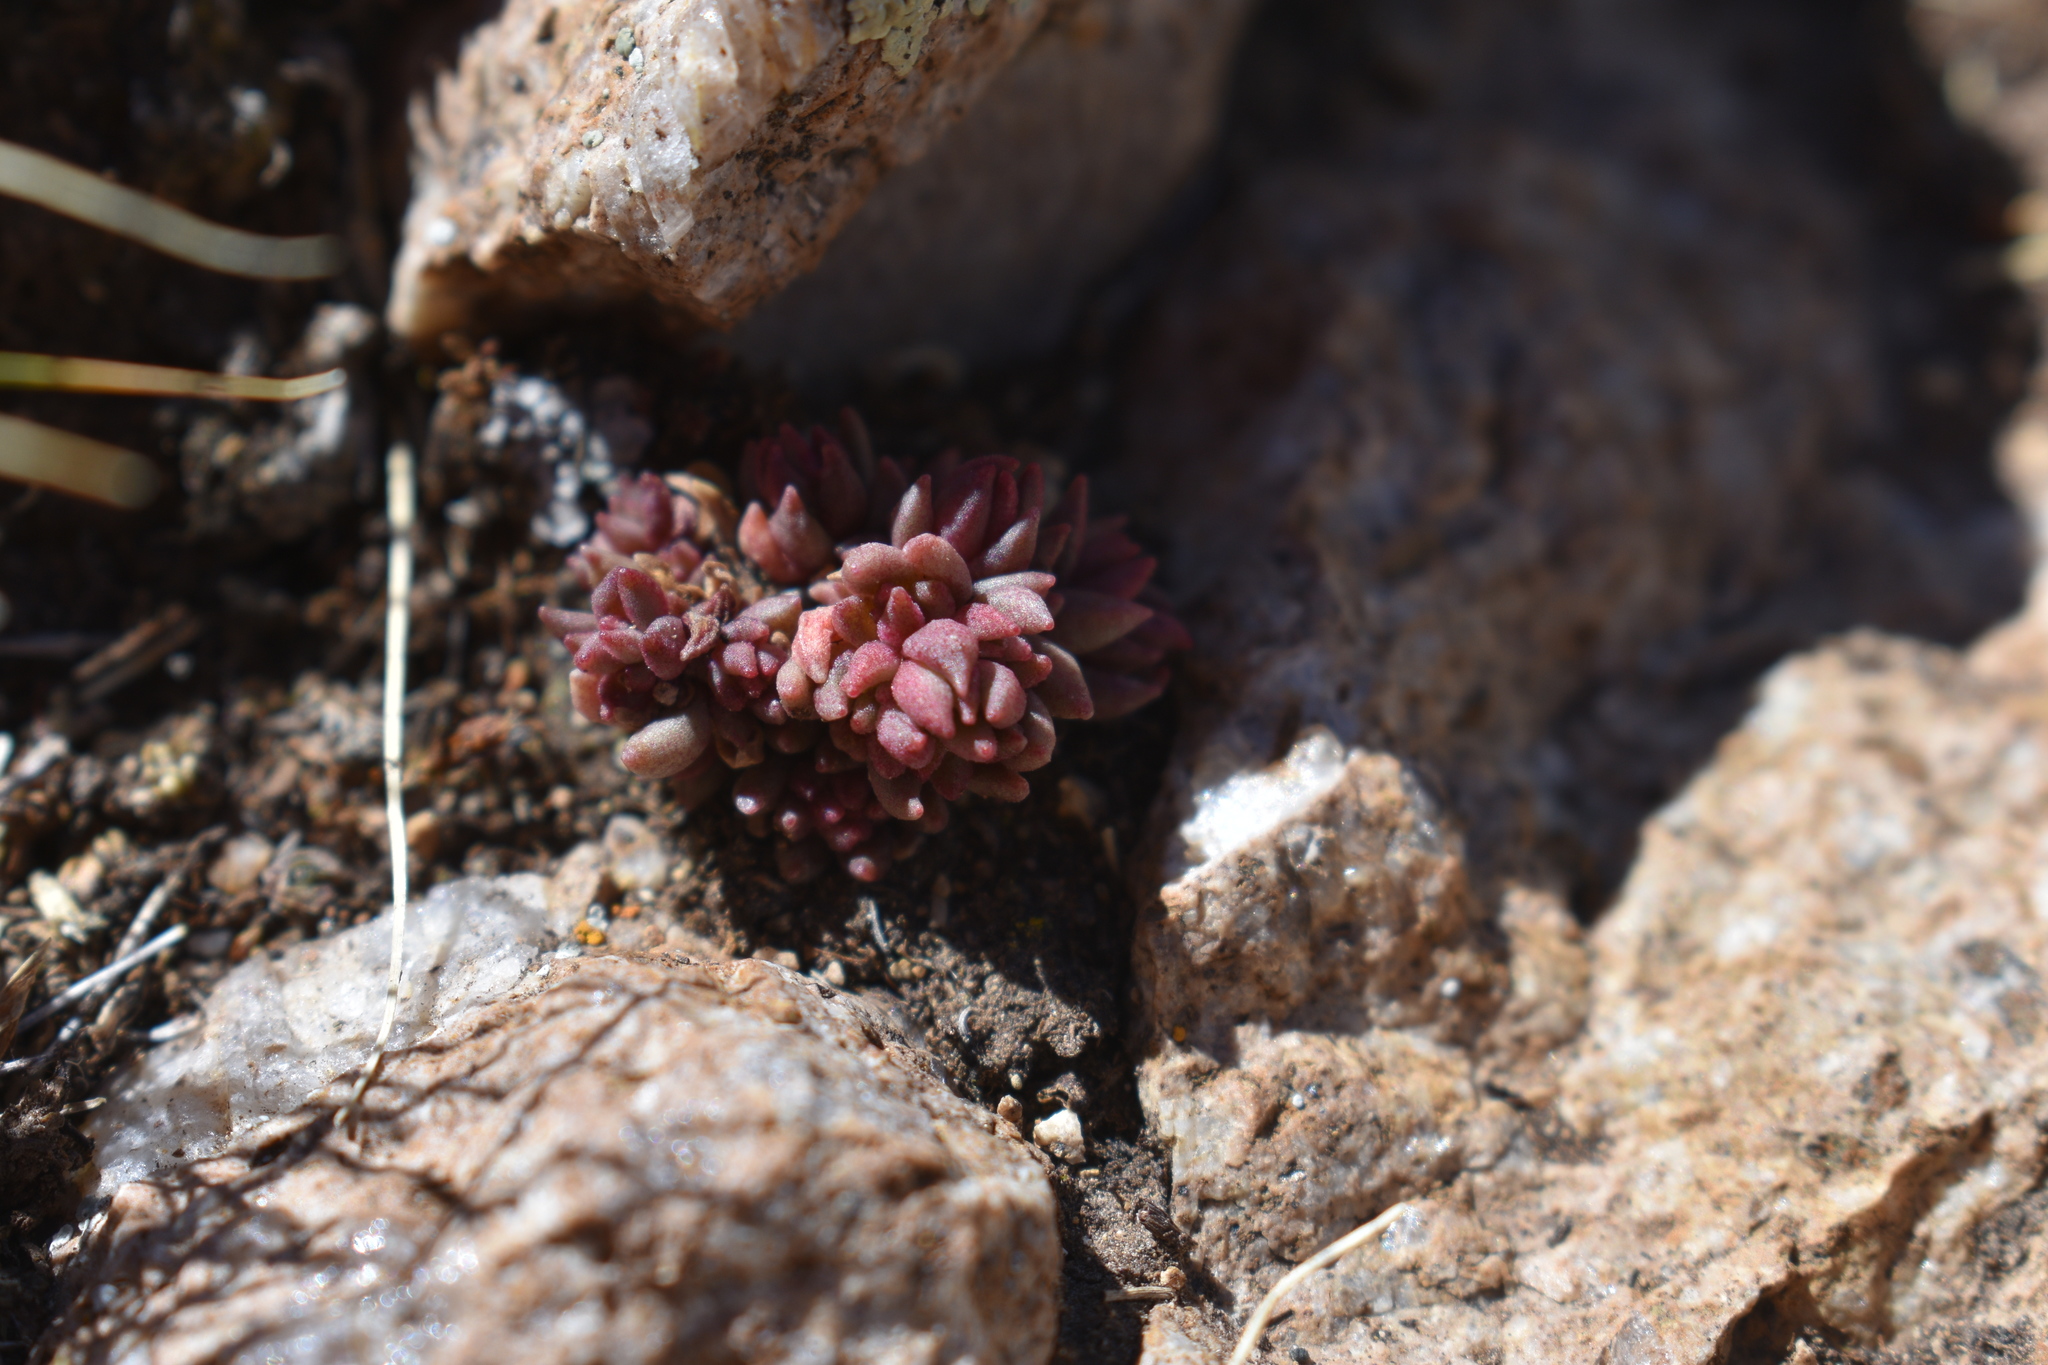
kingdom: Plantae
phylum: Tracheophyta
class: Magnoliopsida
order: Saxifragales
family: Crassulaceae
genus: Sedum
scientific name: Sedum lanceolatum
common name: Common stonecrop
